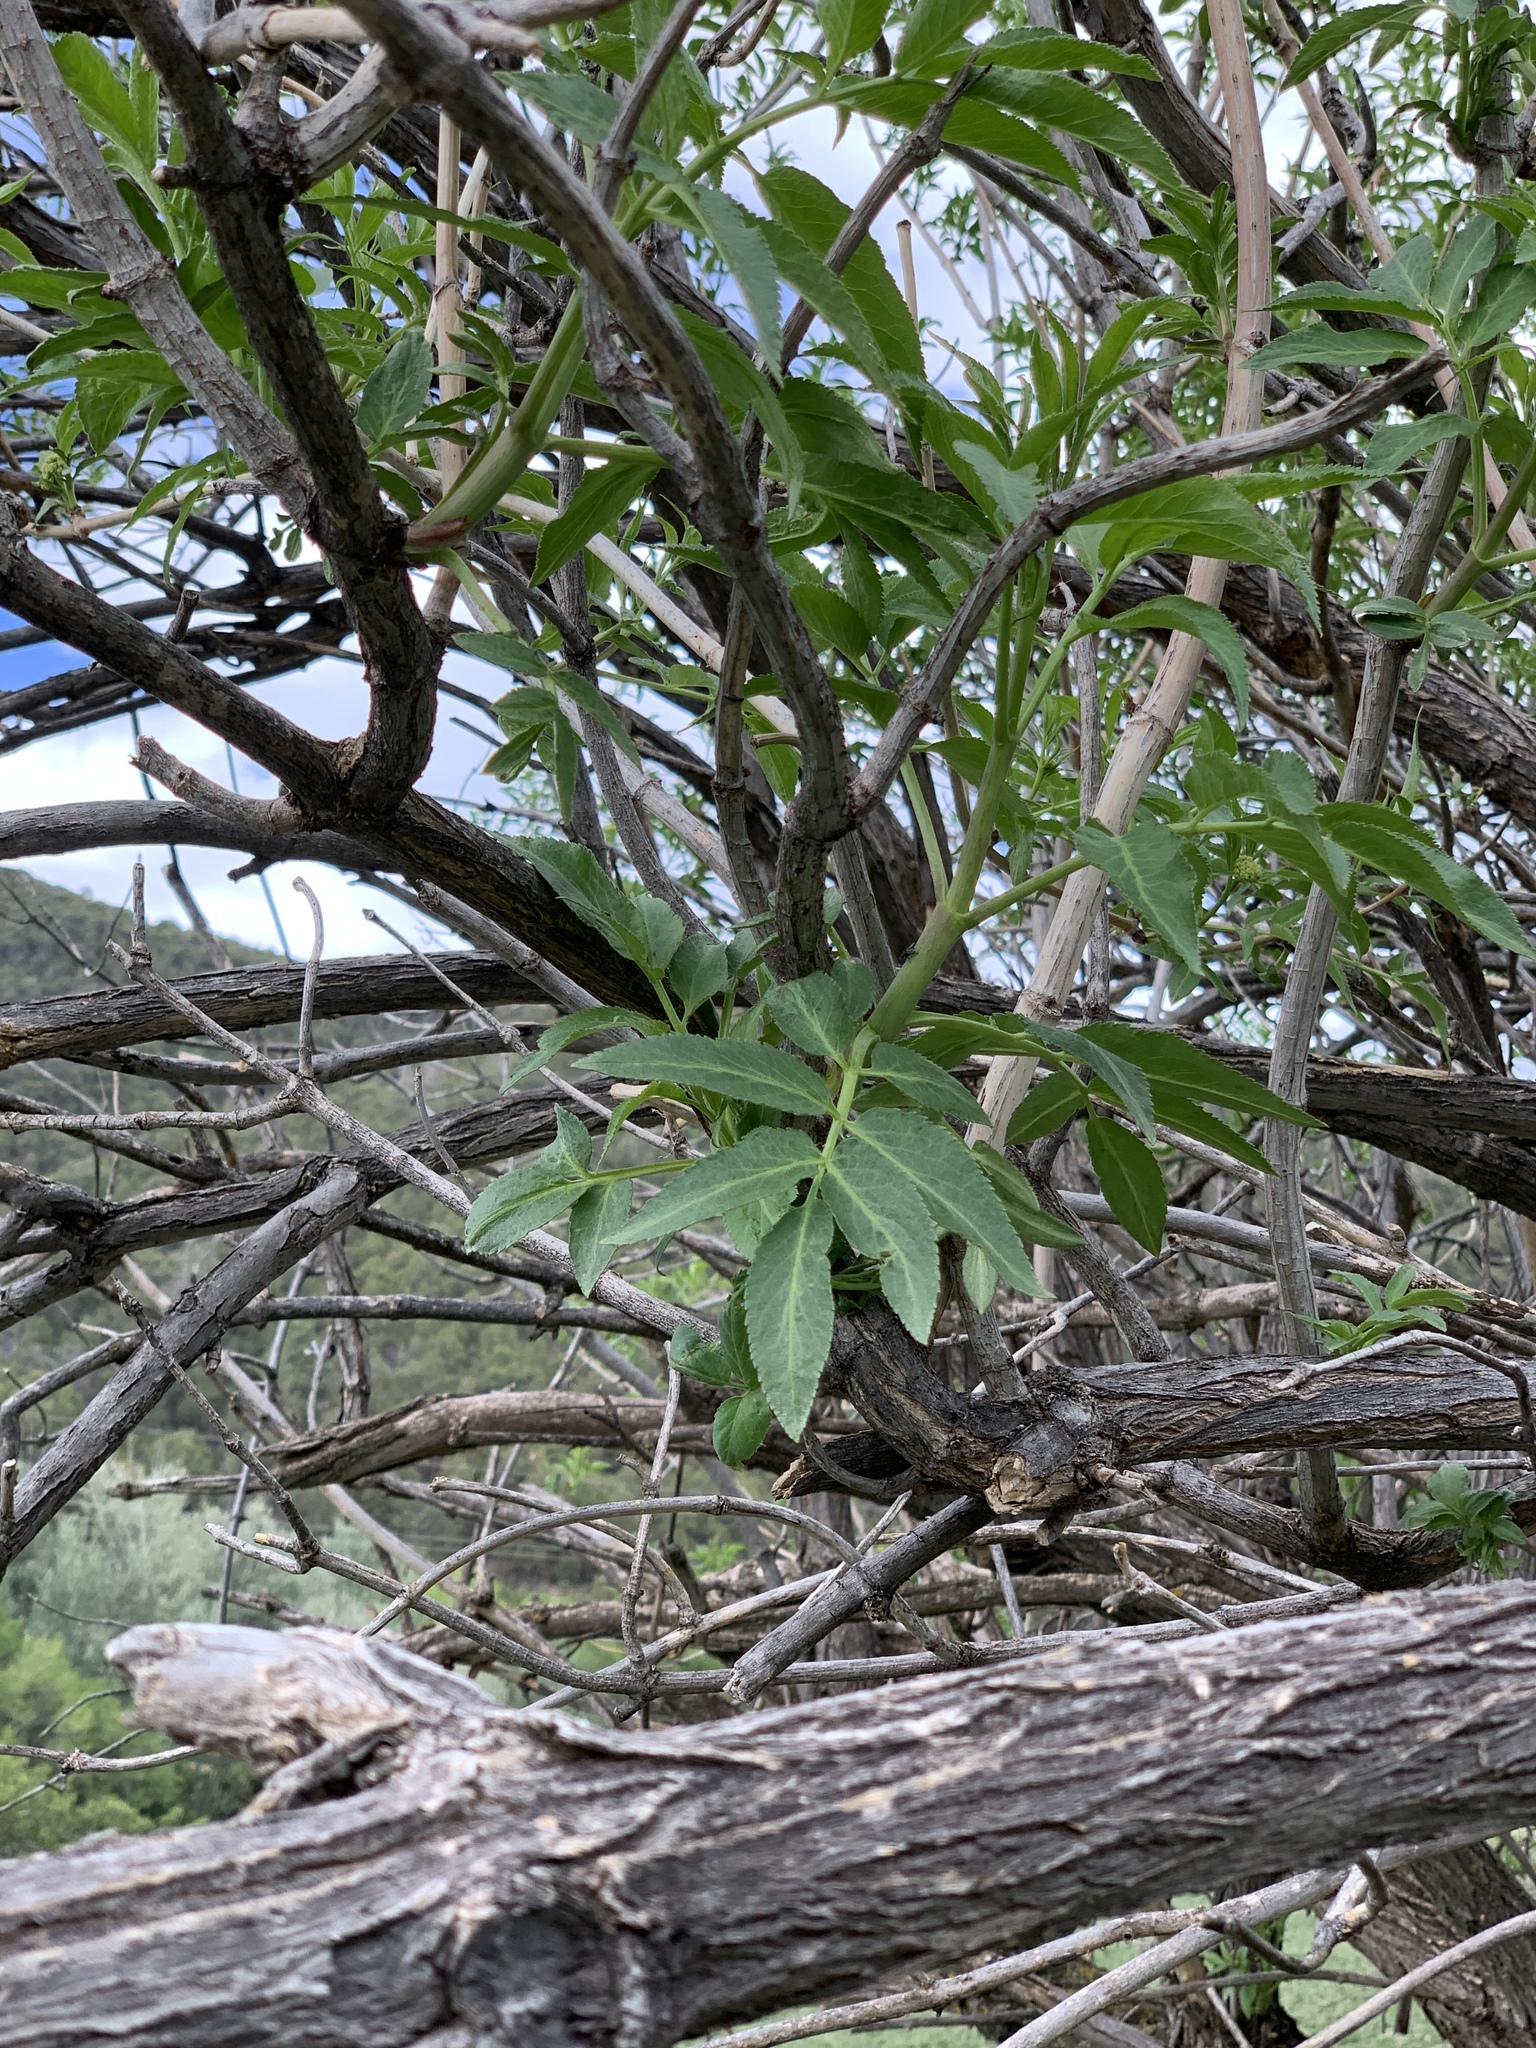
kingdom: Plantae
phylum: Tracheophyta
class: Magnoliopsida
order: Dipsacales
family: Viburnaceae
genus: Sambucus
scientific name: Sambucus cerulea
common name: Blue elder
